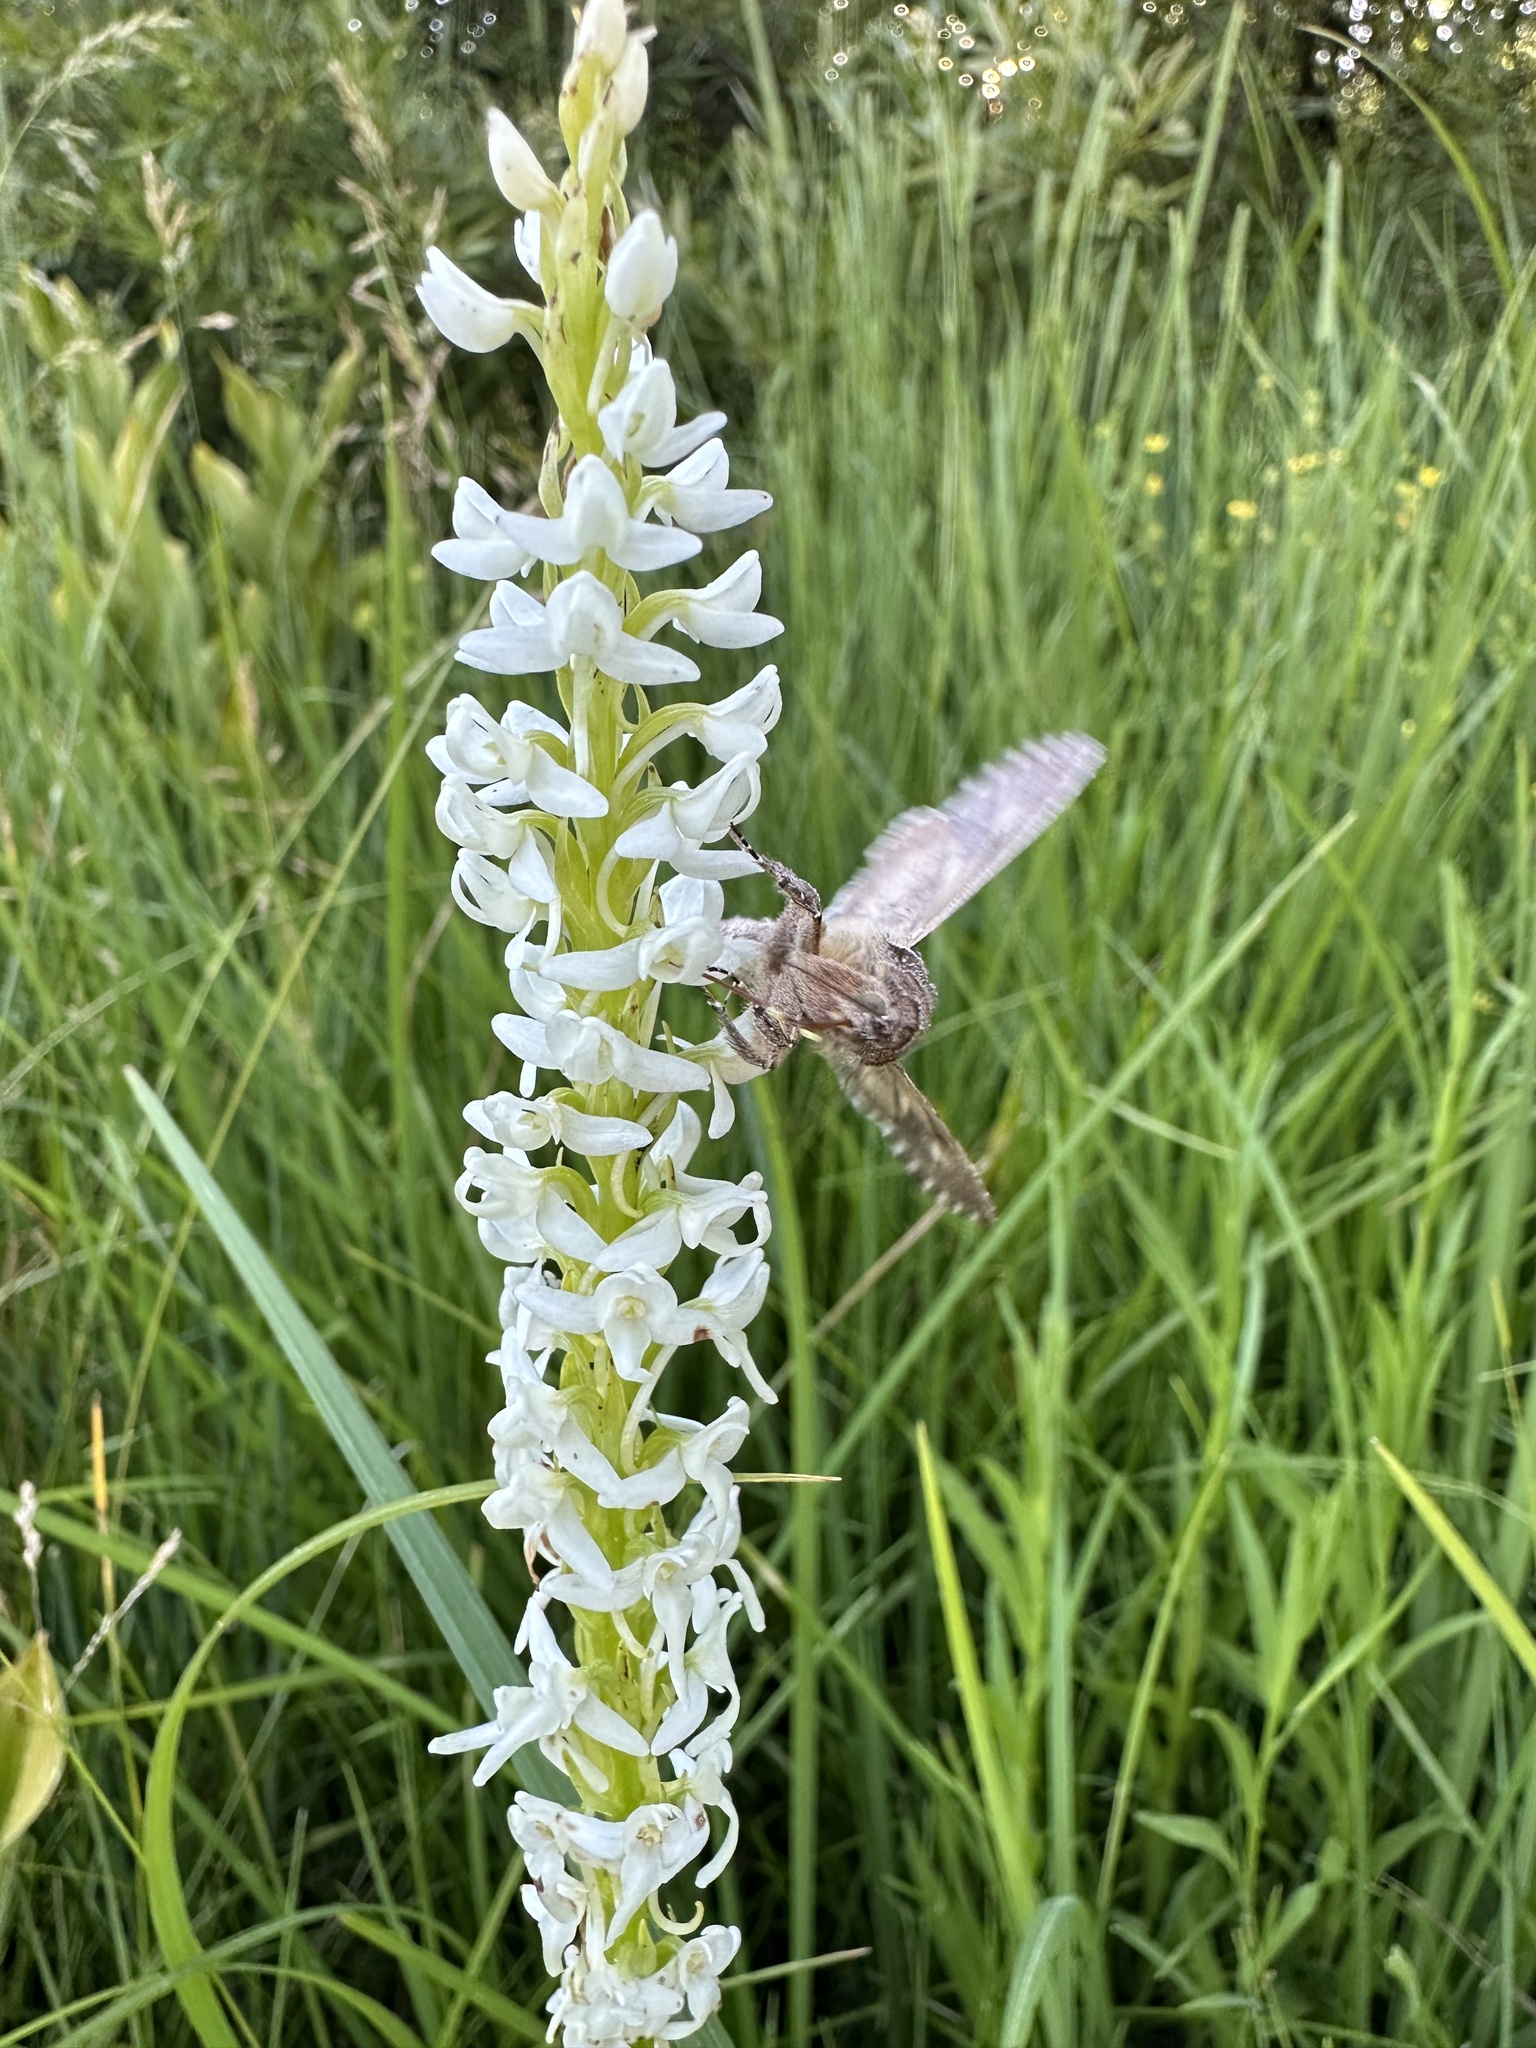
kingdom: Plantae
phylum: Tracheophyta
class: Liliopsida
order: Asparagales
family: Orchidaceae
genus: Platanthera
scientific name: Platanthera dilatata
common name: Bog candles
